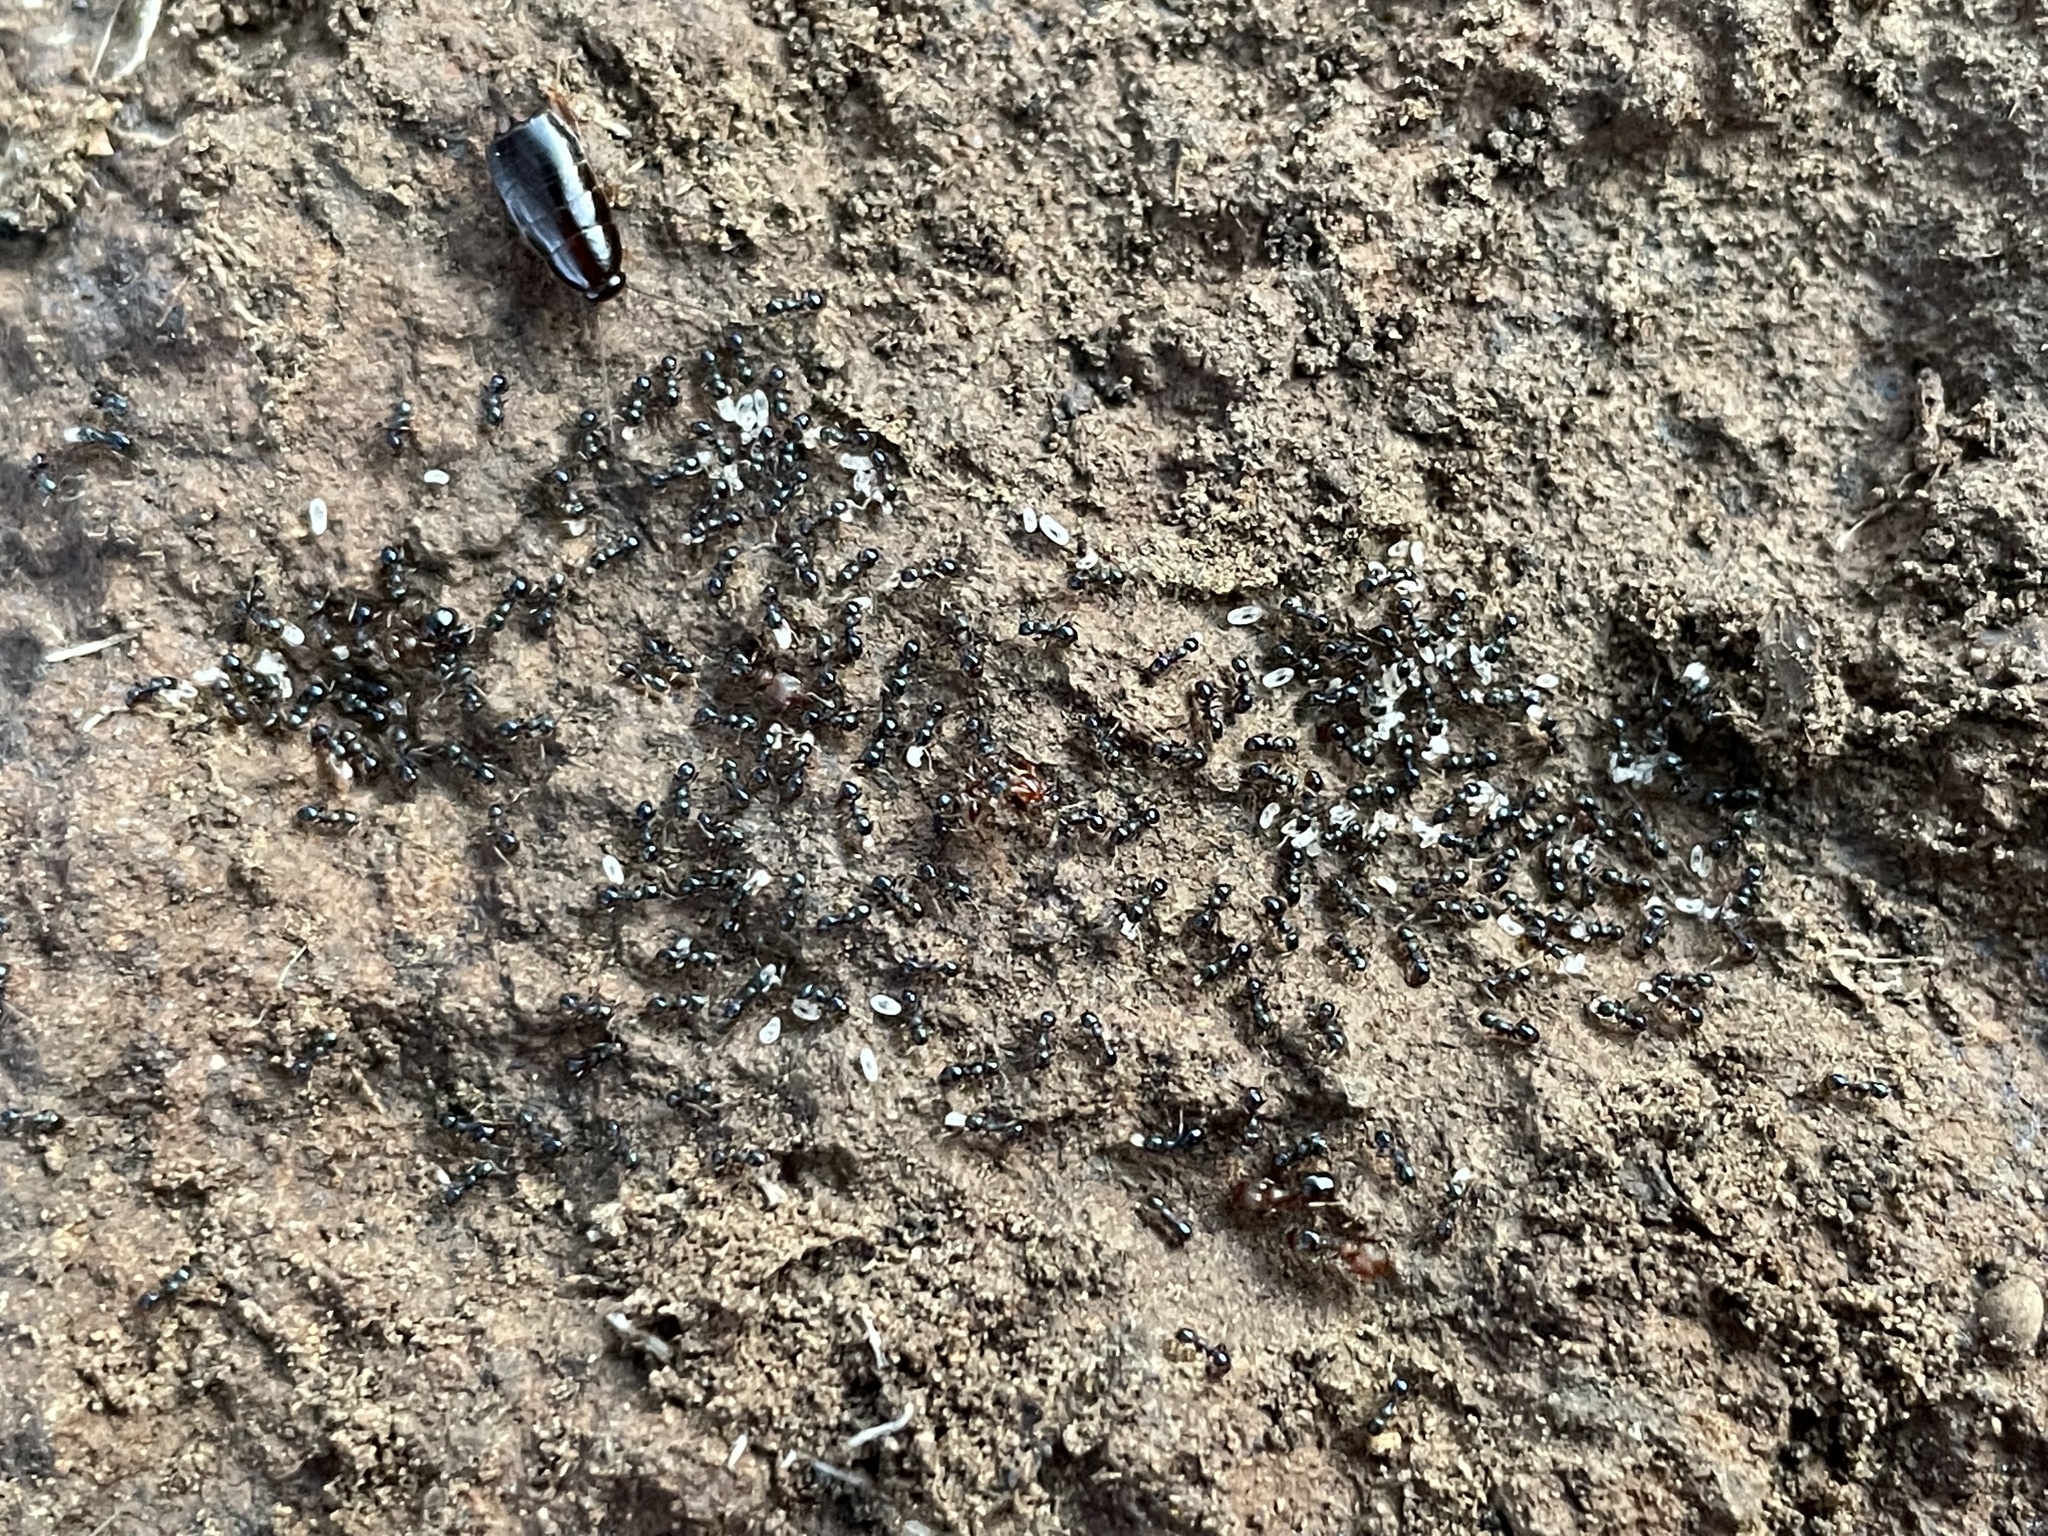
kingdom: Animalia
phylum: Arthropoda
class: Insecta
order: Hymenoptera
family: Formicidae
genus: Pheidole
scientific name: Pheidole metallescens
